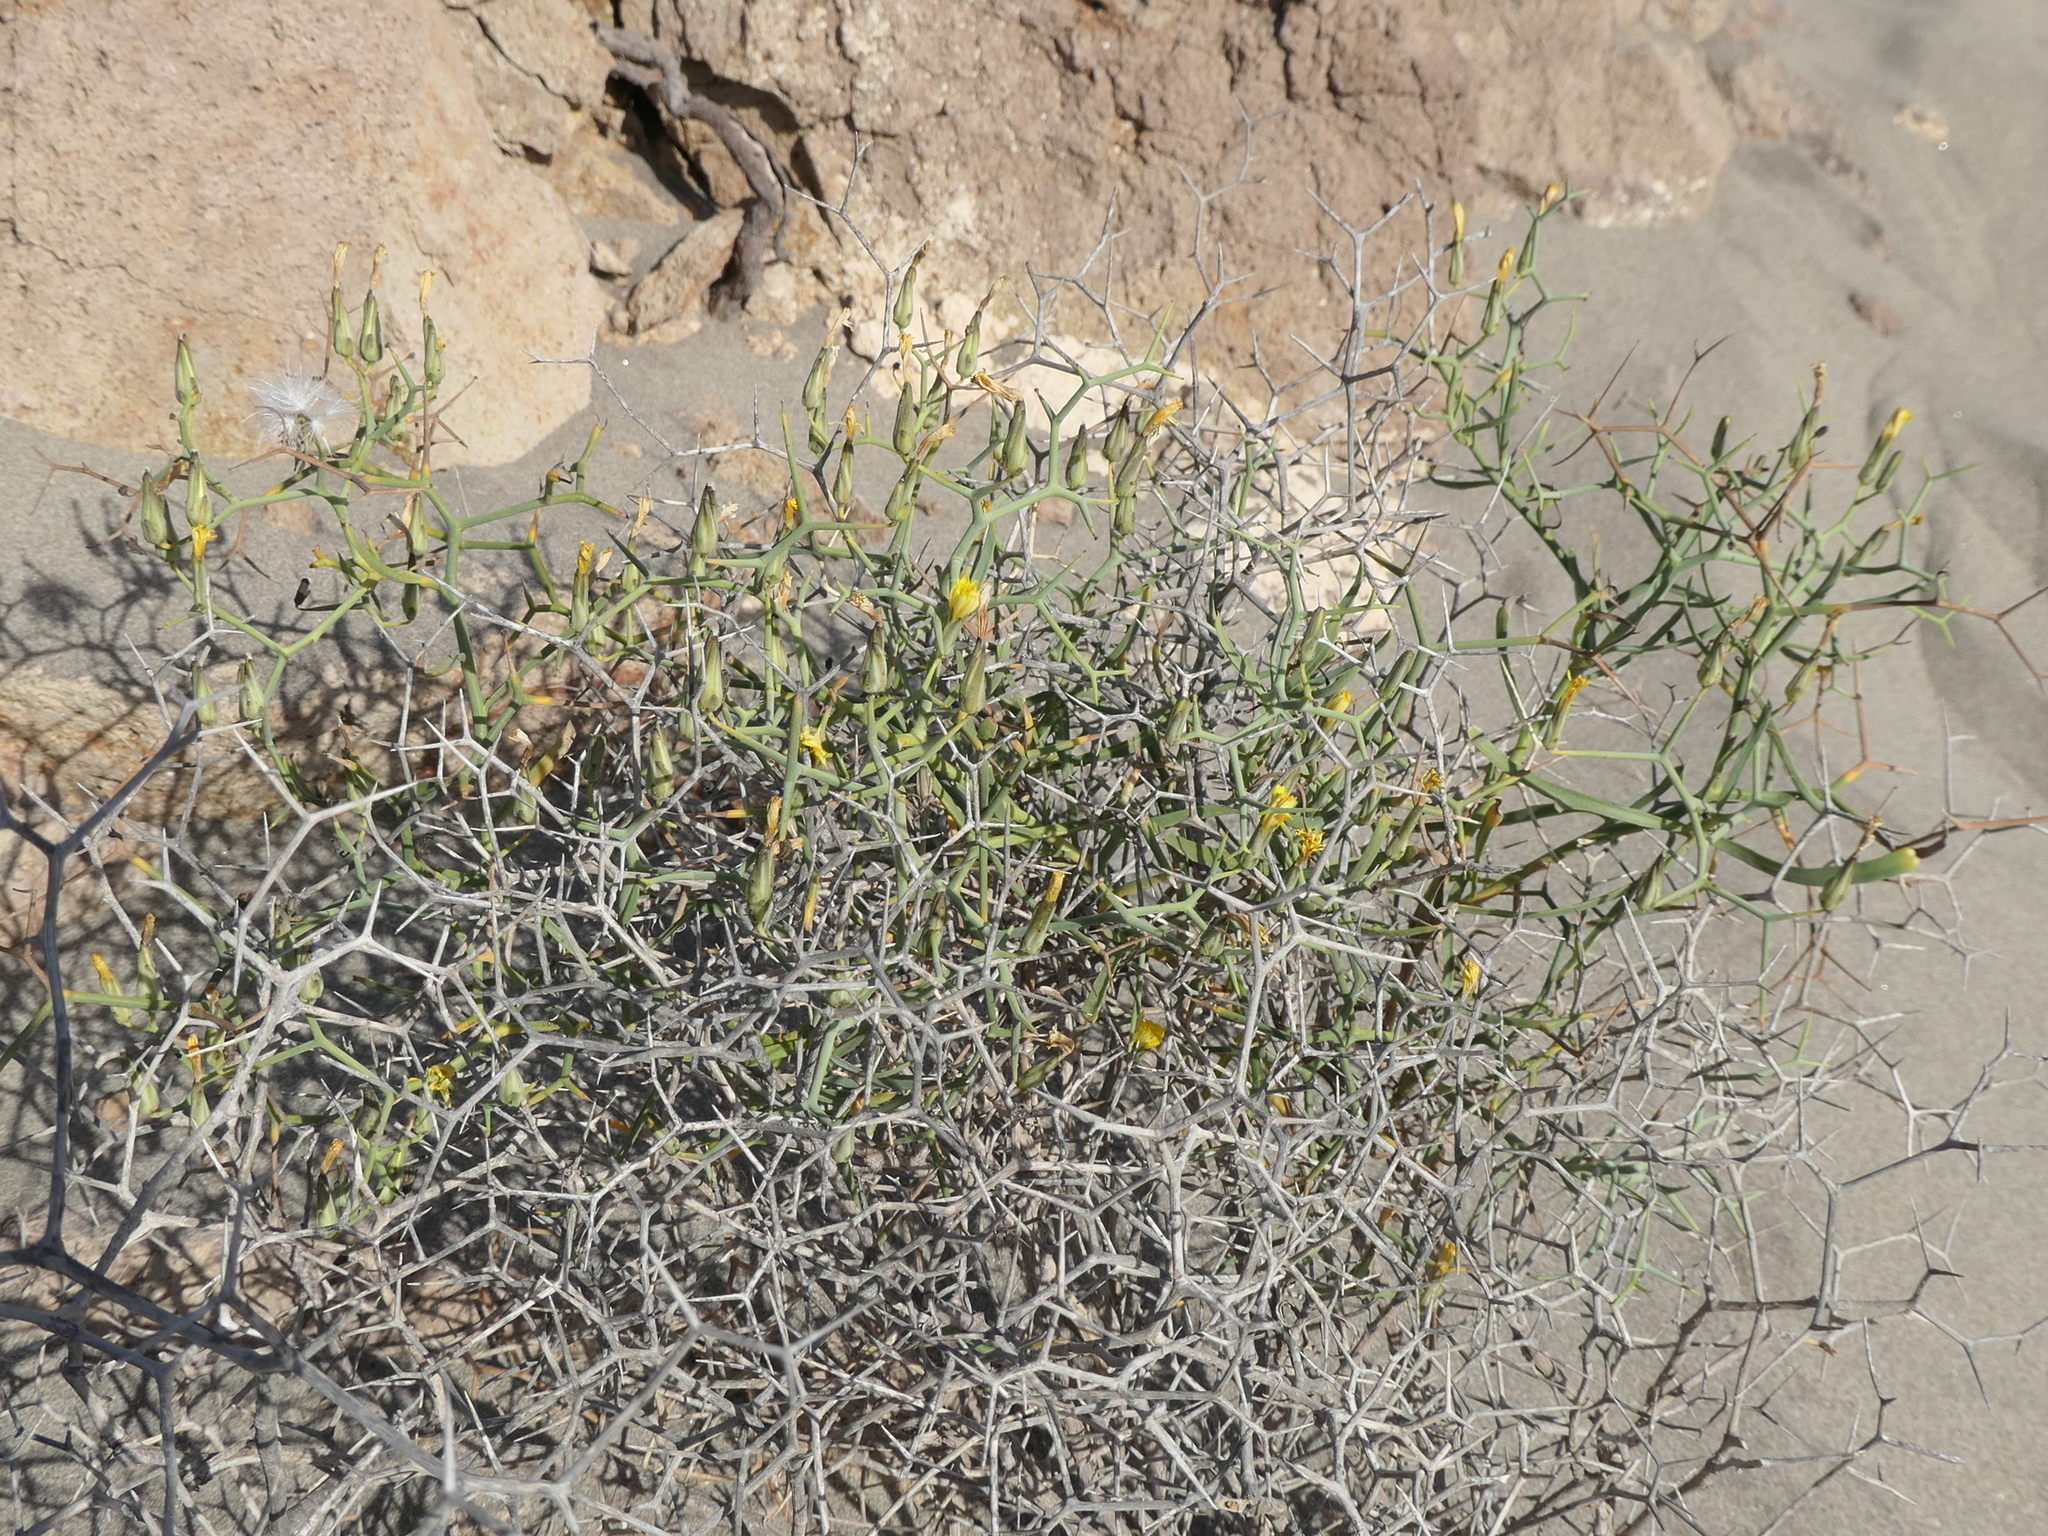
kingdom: Plantae
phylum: Tracheophyta
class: Magnoliopsida
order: Asterales
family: Asteraceae
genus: Launaea
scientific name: Launaea arborescens
